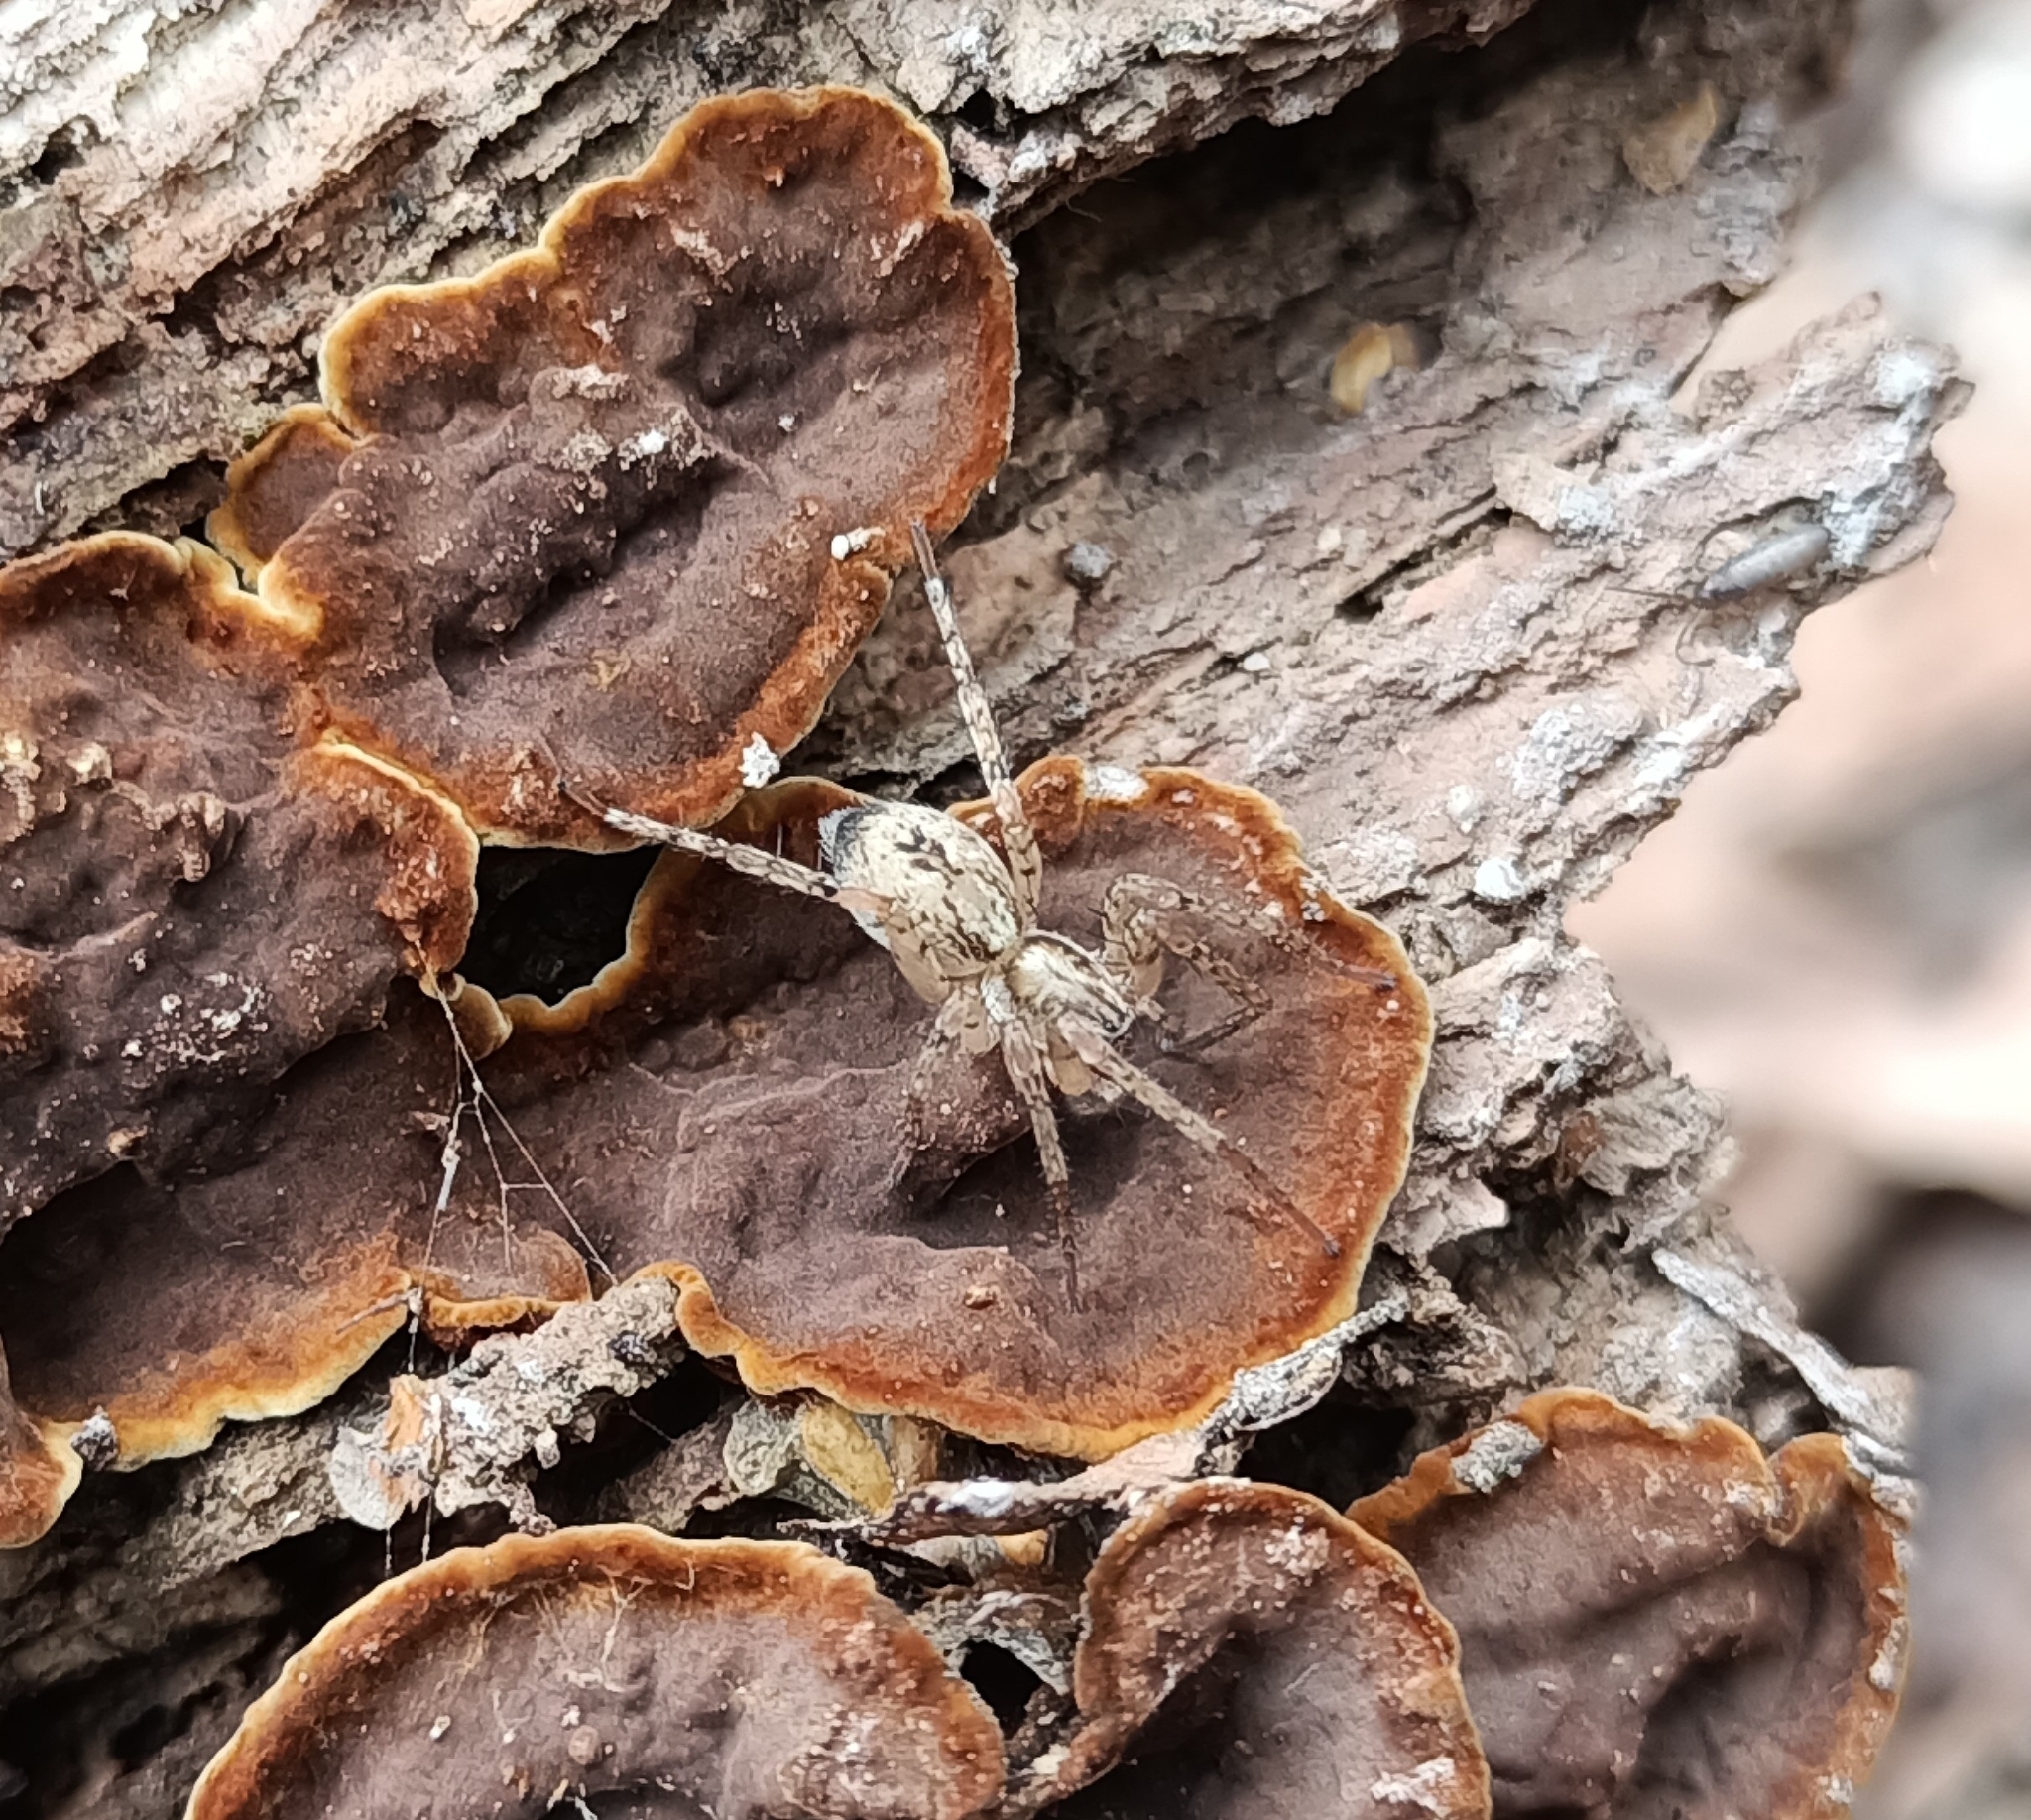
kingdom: Animalia
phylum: Arthropoda
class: Arachnida
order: Araneae
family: Anyphaenidae
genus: Anyphaena
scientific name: Anyphaena accentuata
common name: Buzzing spider
